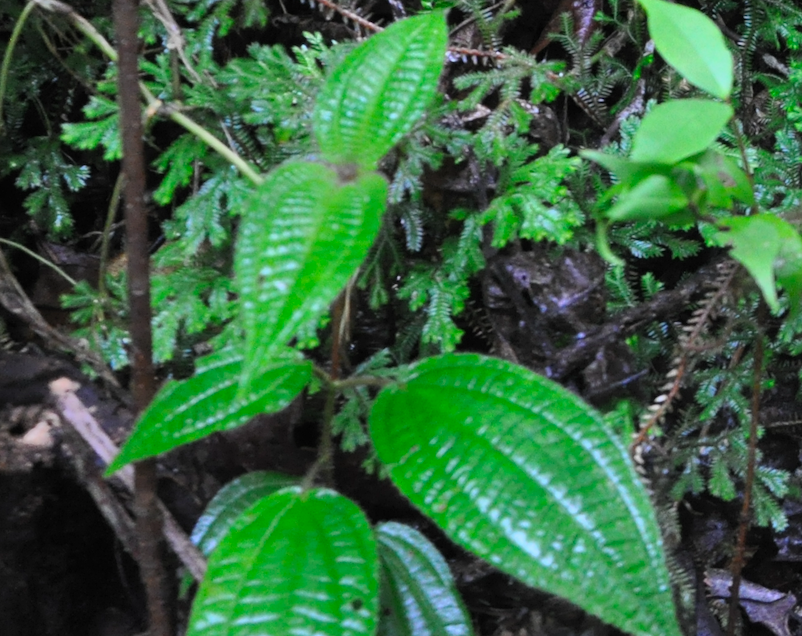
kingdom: Plantae
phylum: Tracheophyta
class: Magnoliopsida
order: Myrtales
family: Melastomataceae
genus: Miconia
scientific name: Miconia crenata
